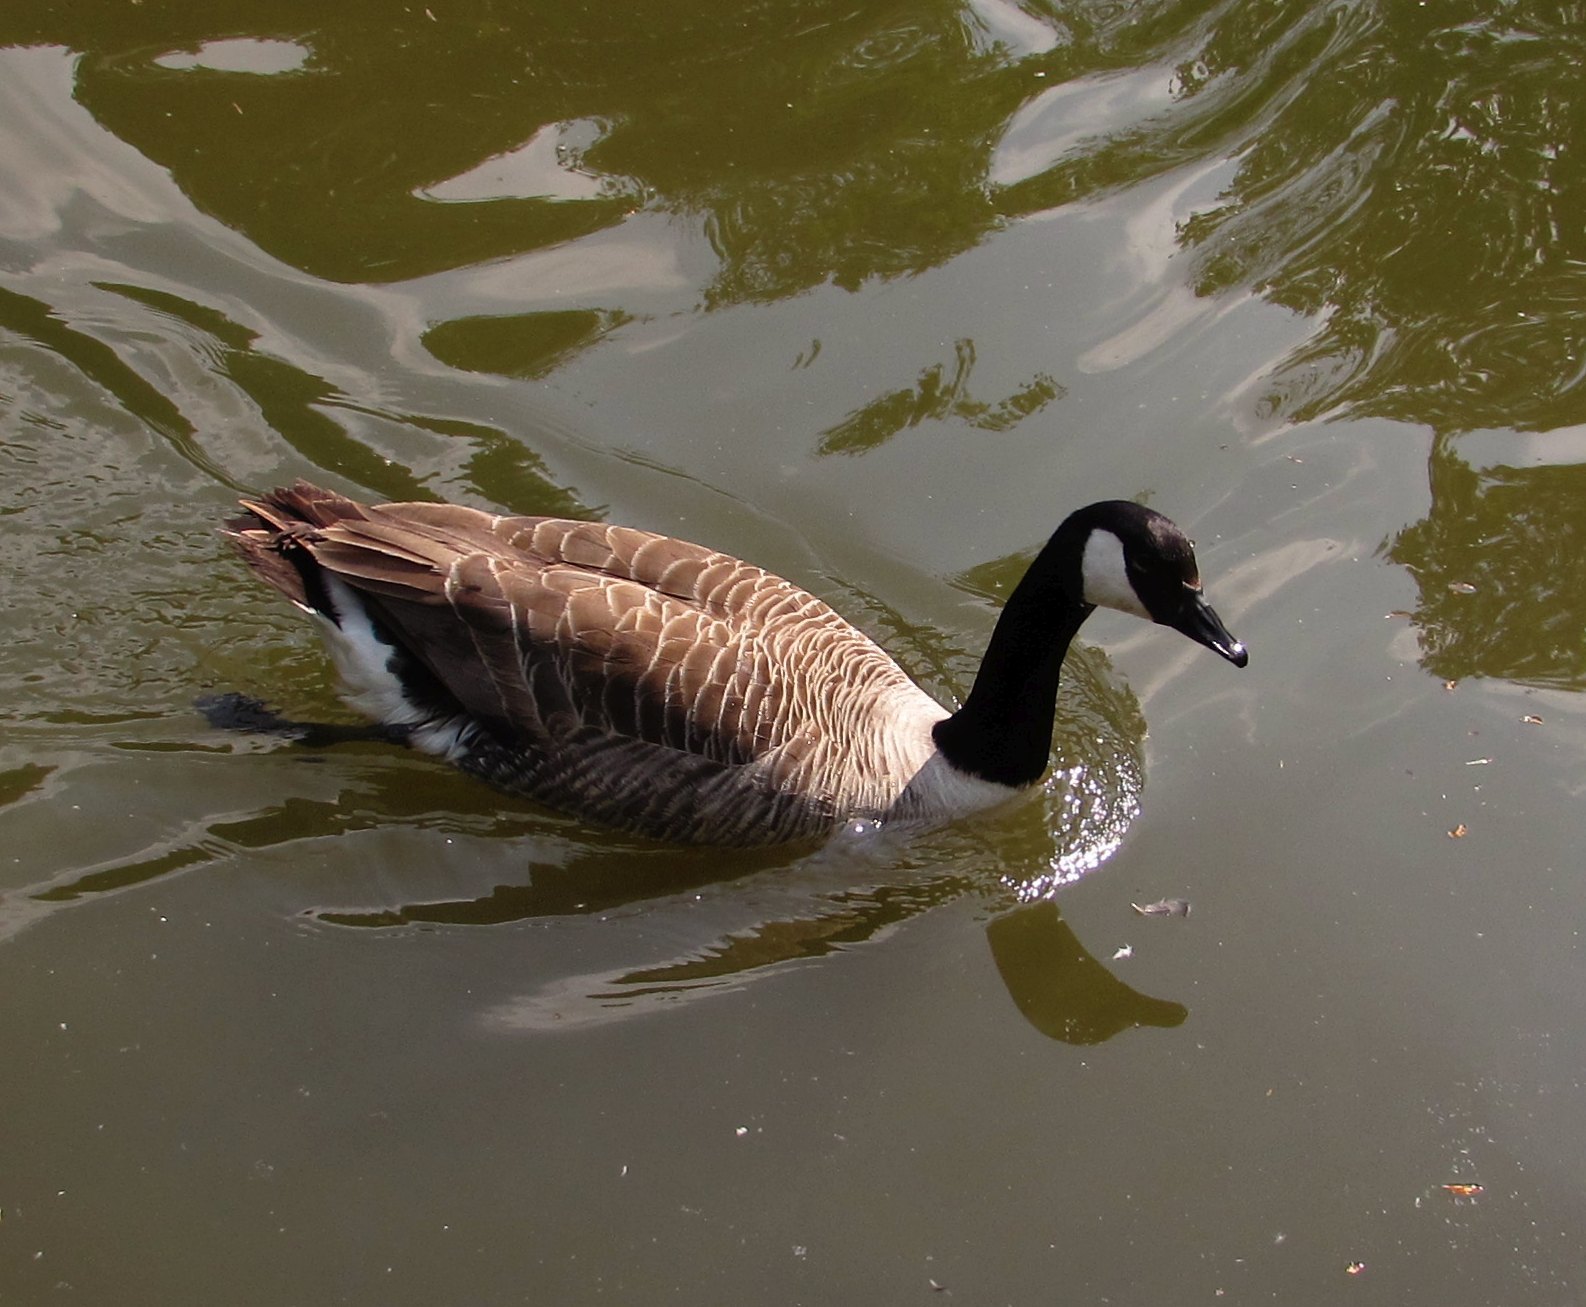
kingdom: Animalia
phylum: Chordata
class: Aves
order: Anseriformes
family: Anatidae
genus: Branta
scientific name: Branta canadensis
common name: Canada goose
